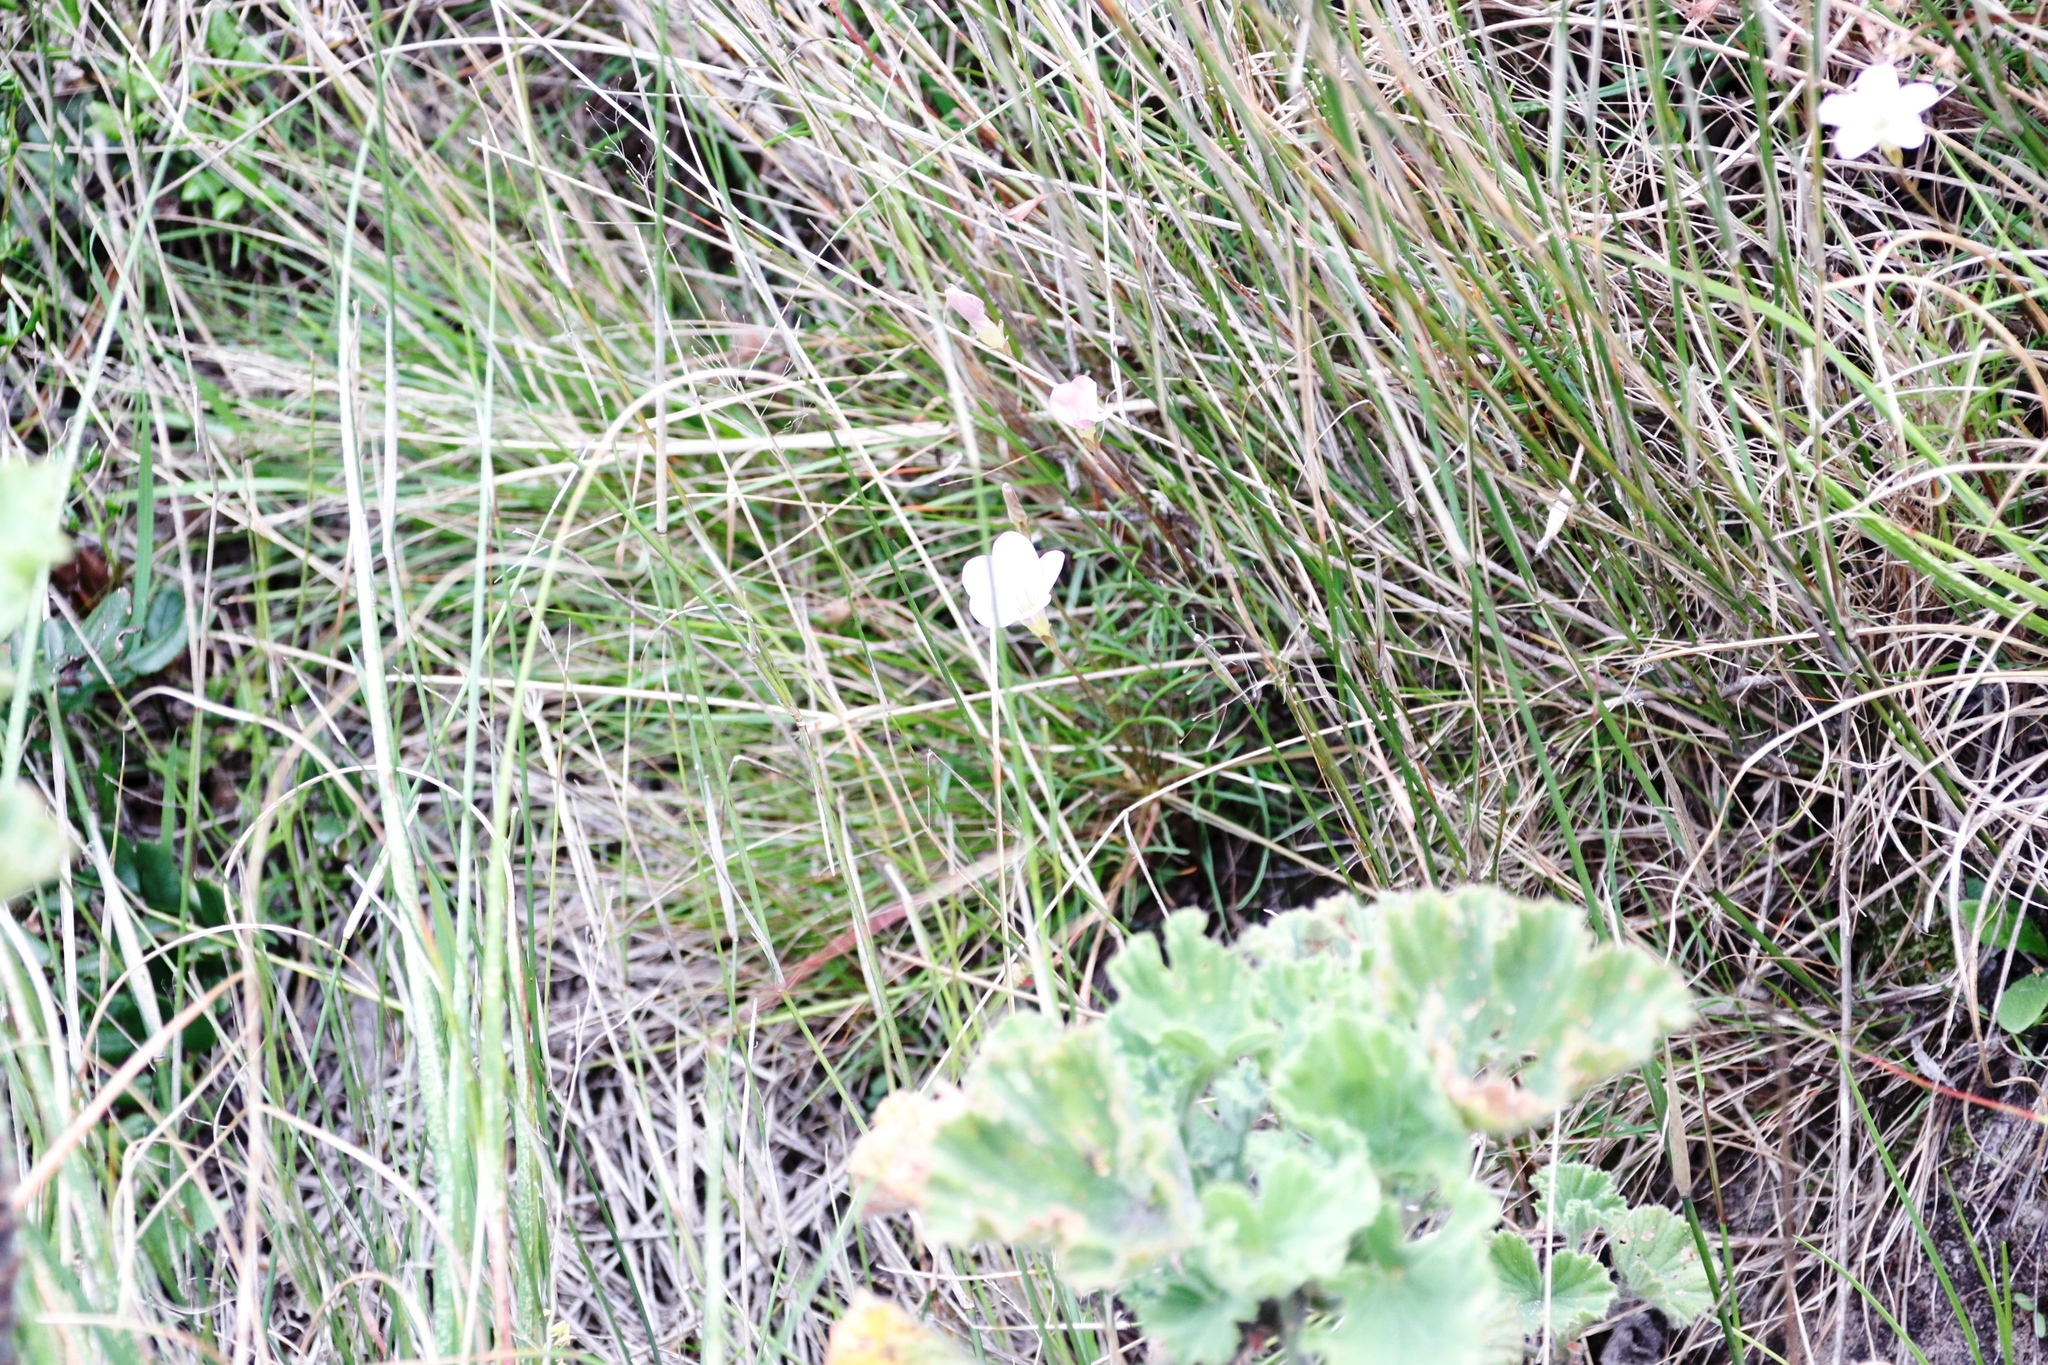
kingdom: Plantae
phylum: Tracheophyta
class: Magnoliopsida
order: Oxalidales
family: Oxalidaceae
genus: Oxalis
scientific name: Oxalis polyphylla
